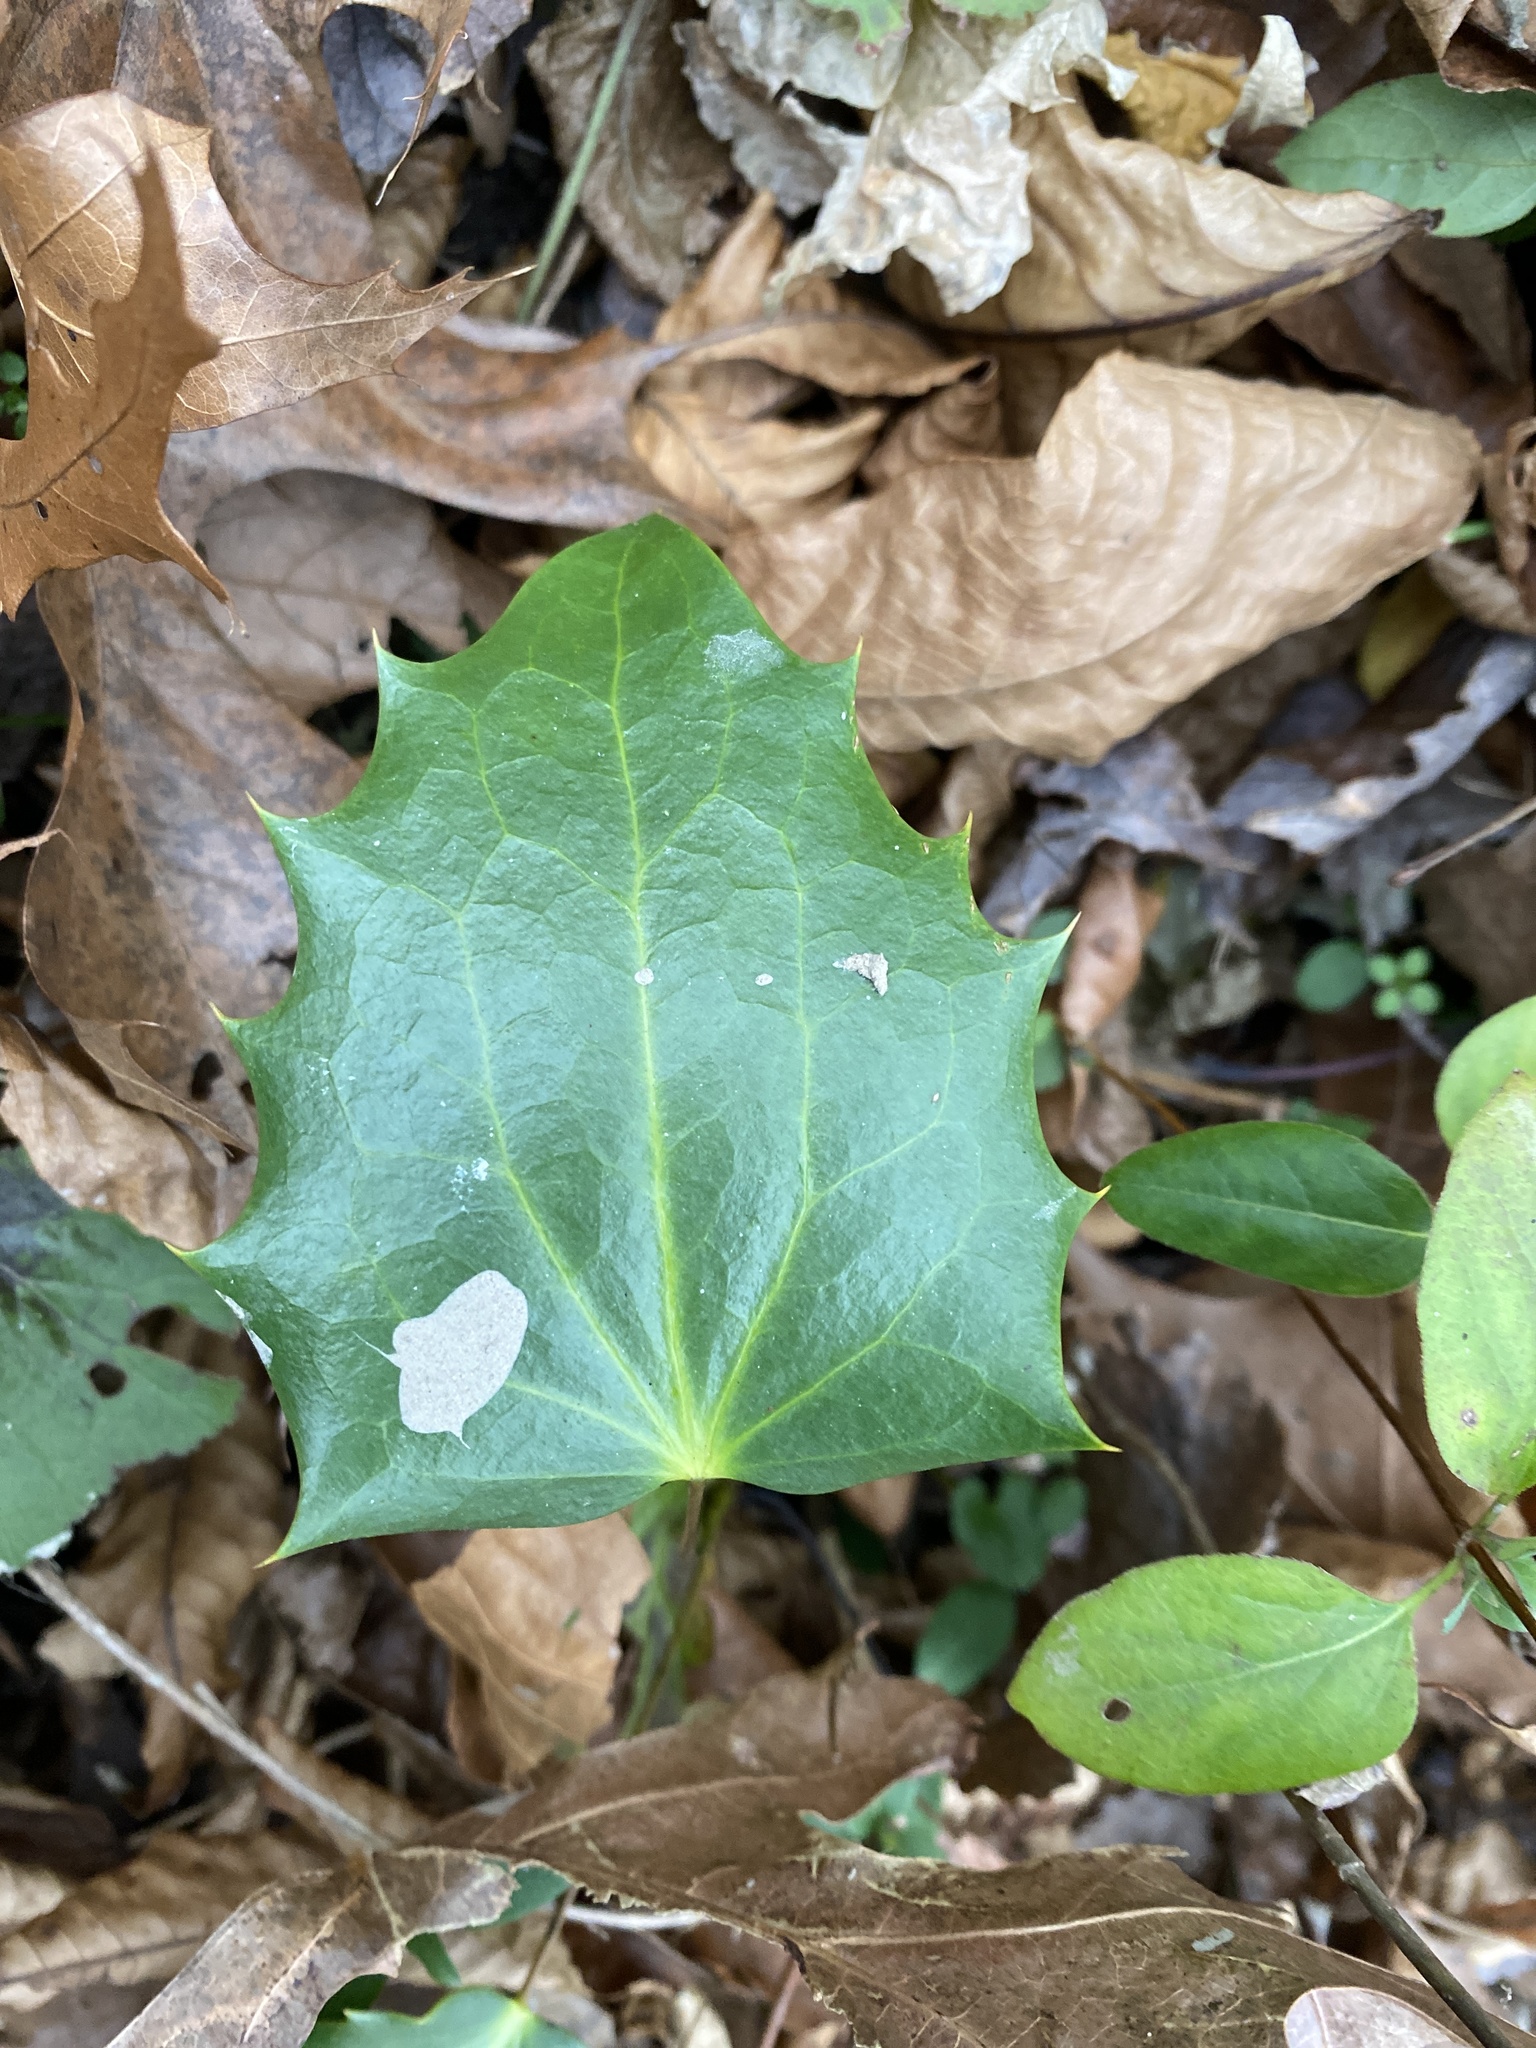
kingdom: Plantae
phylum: Tracheophyta
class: Magnoliopsida
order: Ranunculales
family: Berberidaceae
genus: Mahonia
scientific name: Mahonia bealei
